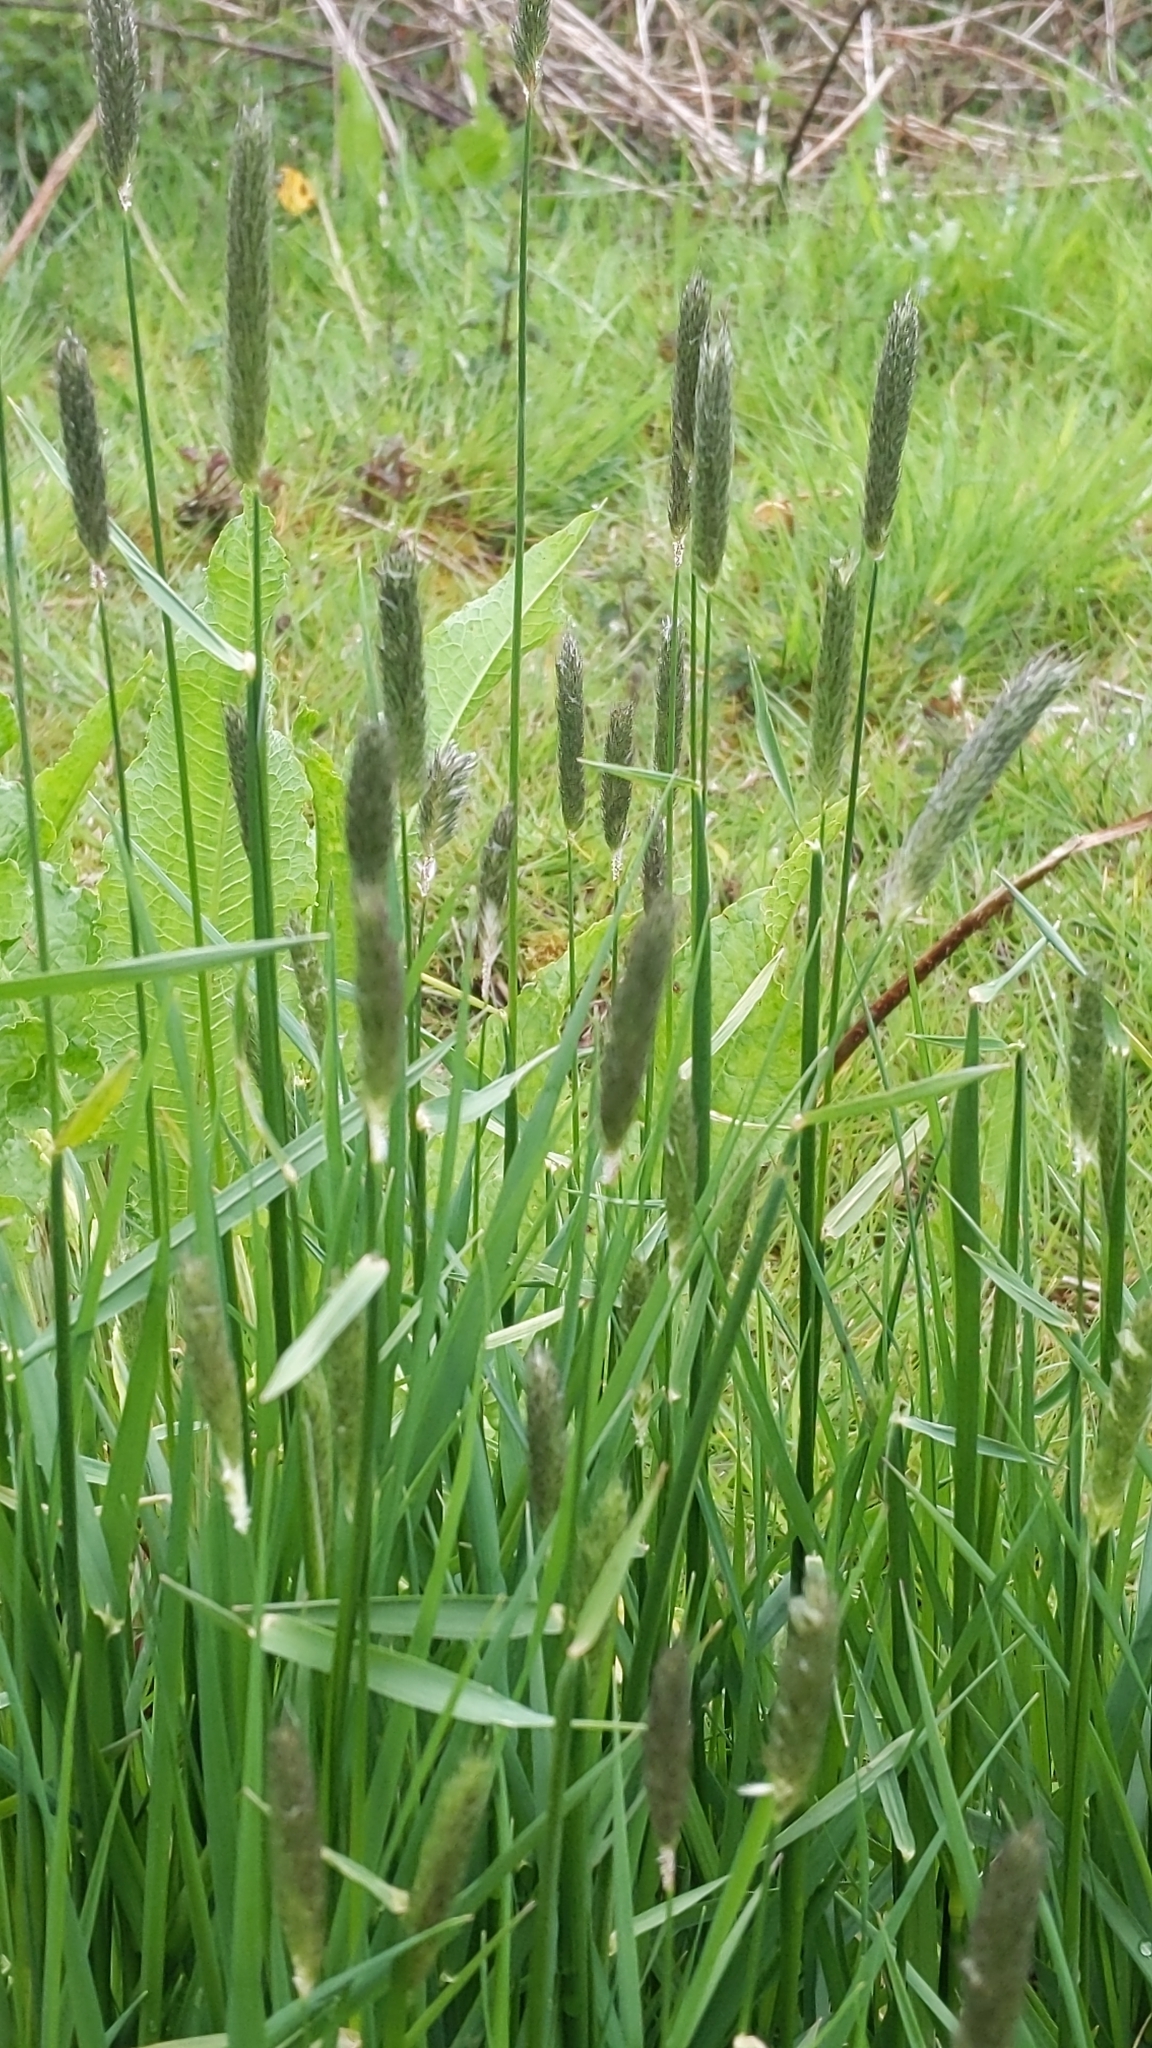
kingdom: Plantae
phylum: Tracheophyta
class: Liliopsida
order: Poales
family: Poaceae
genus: Alopecurus
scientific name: Alopecurus geniculatus
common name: Water foxtail
